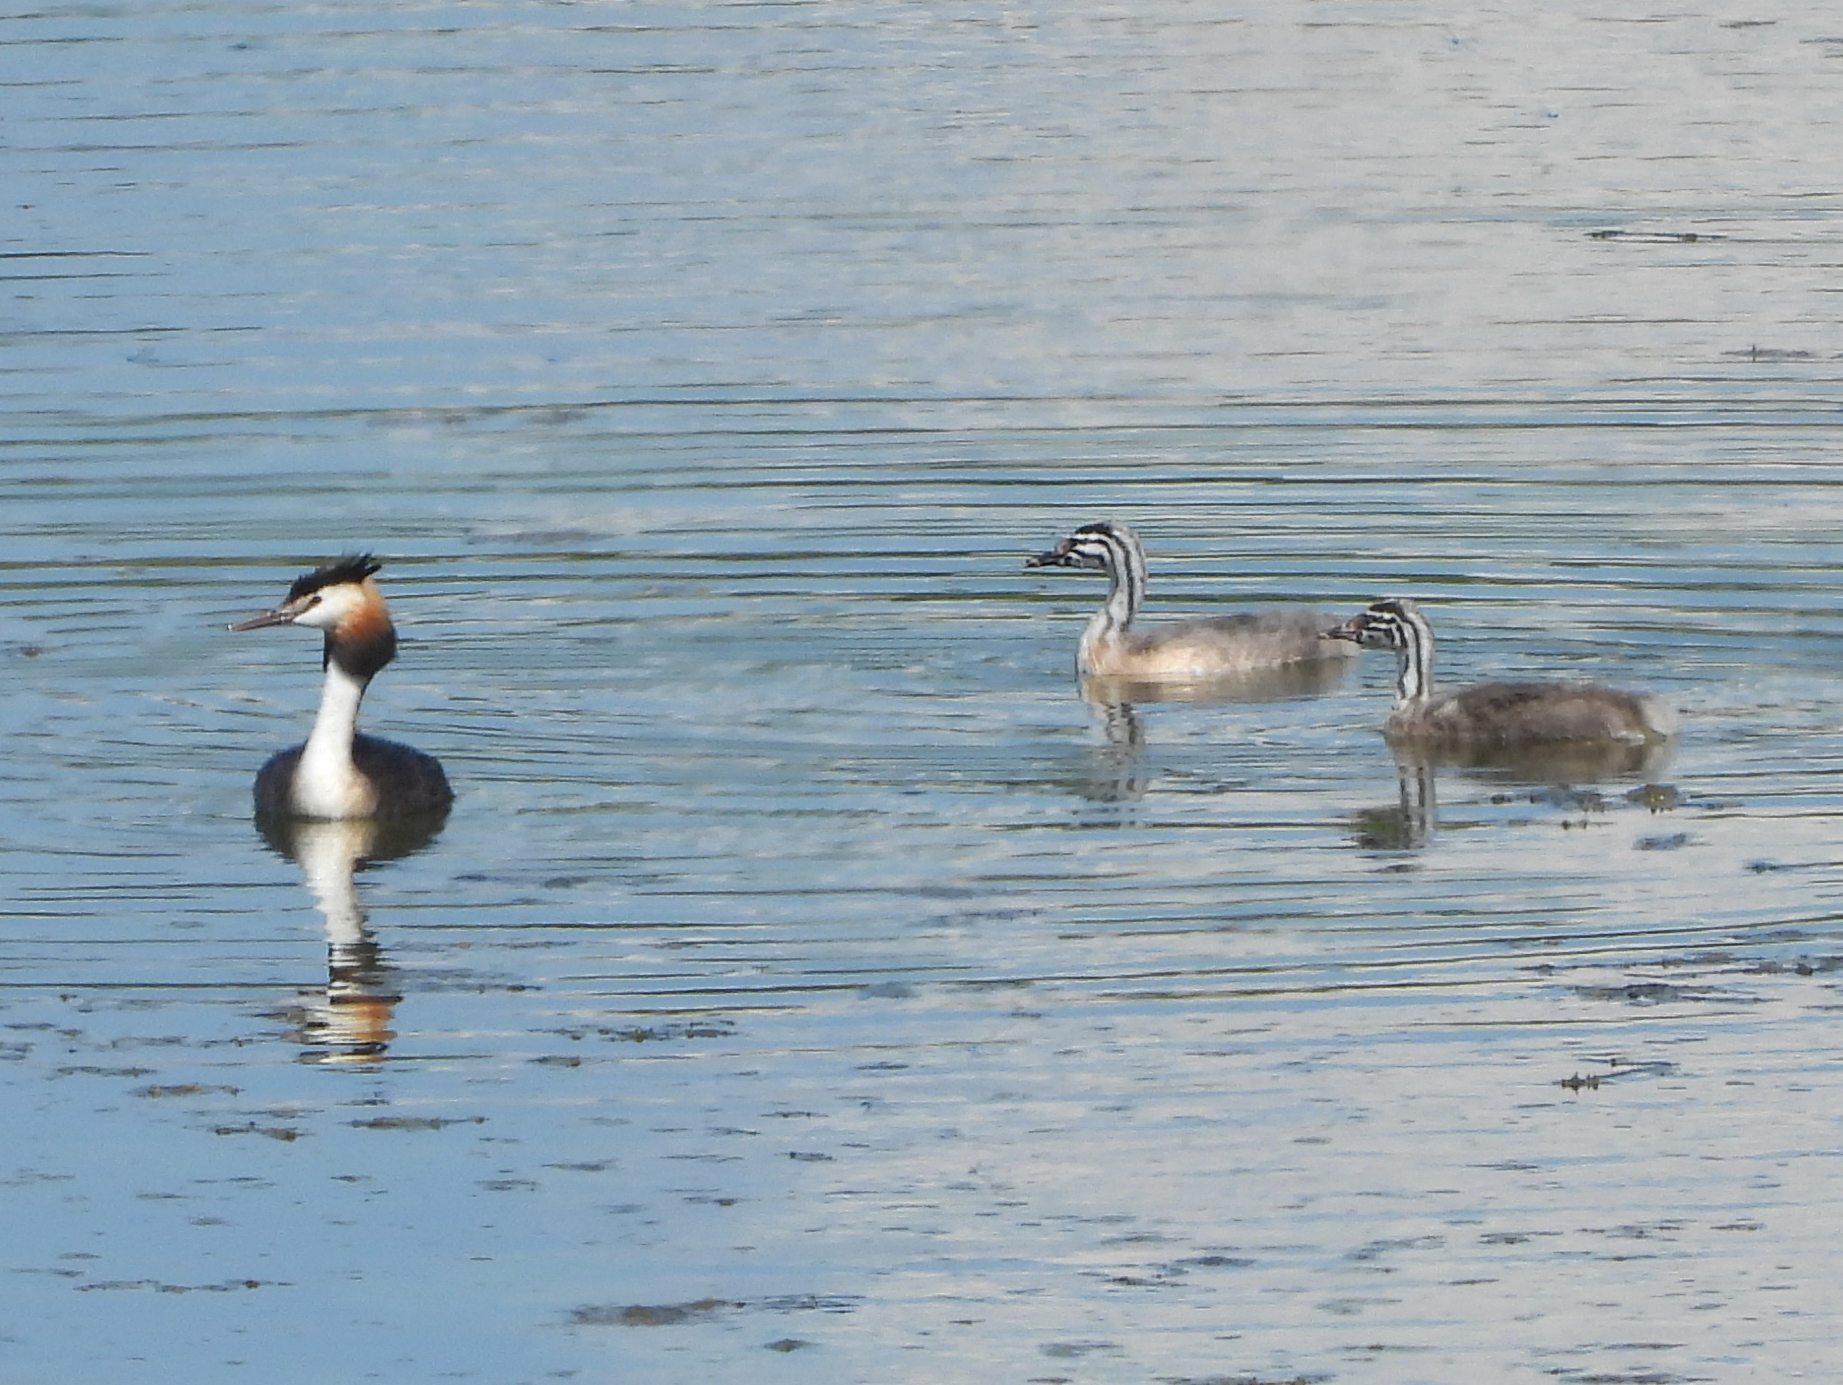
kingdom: Animalia
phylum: Chordata
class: Aves
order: Podicipediformes
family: Podicipedidae
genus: Podiceps
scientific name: Podiceps cristatus
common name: Great crested grebe
